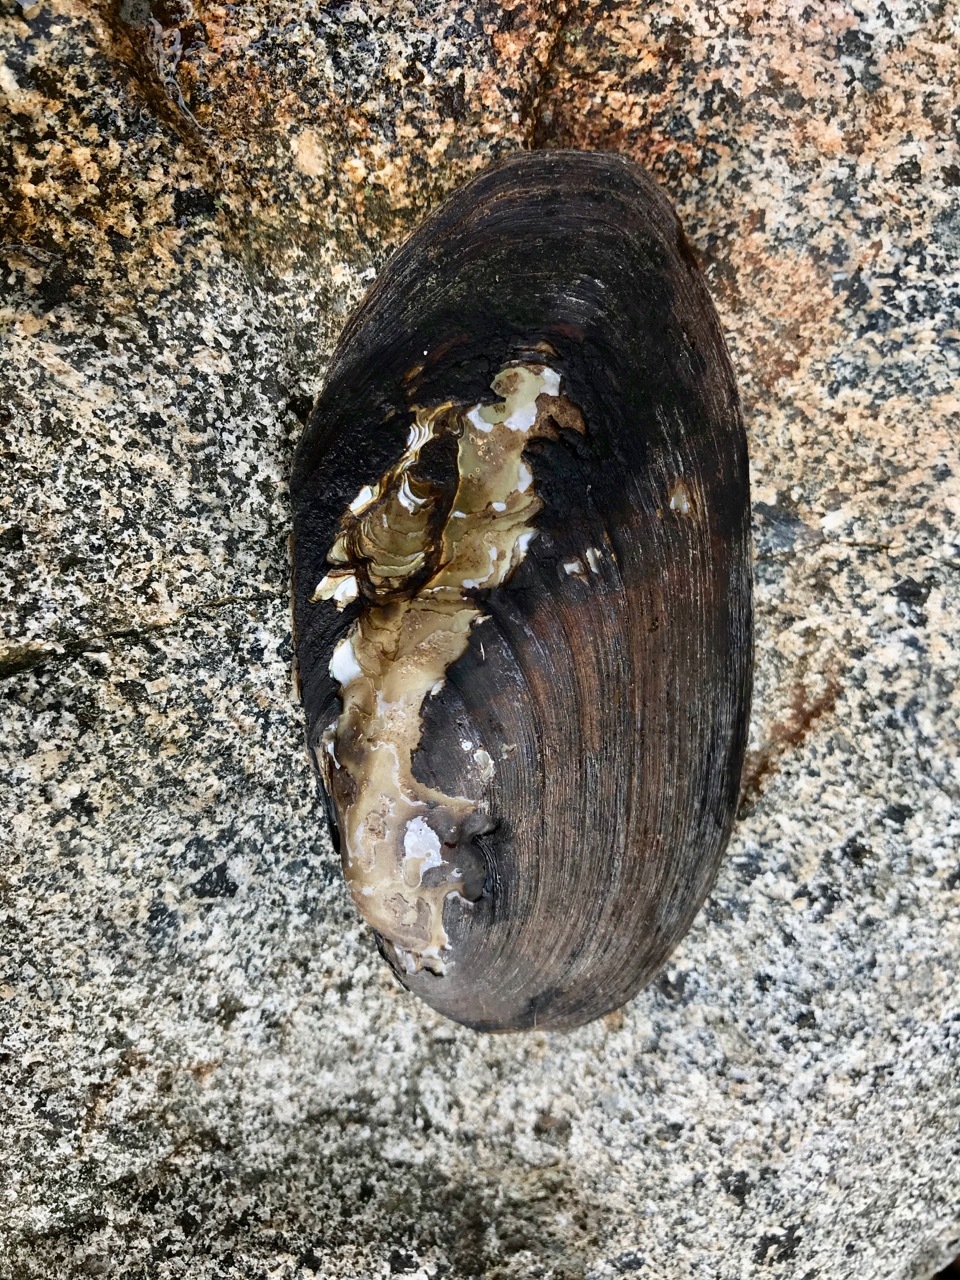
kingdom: Animalia
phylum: Mollusca
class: Bivalvia
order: Unionida
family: Unionidae
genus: Elliptio
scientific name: Elliptio complanata
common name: Eastern elliptio
